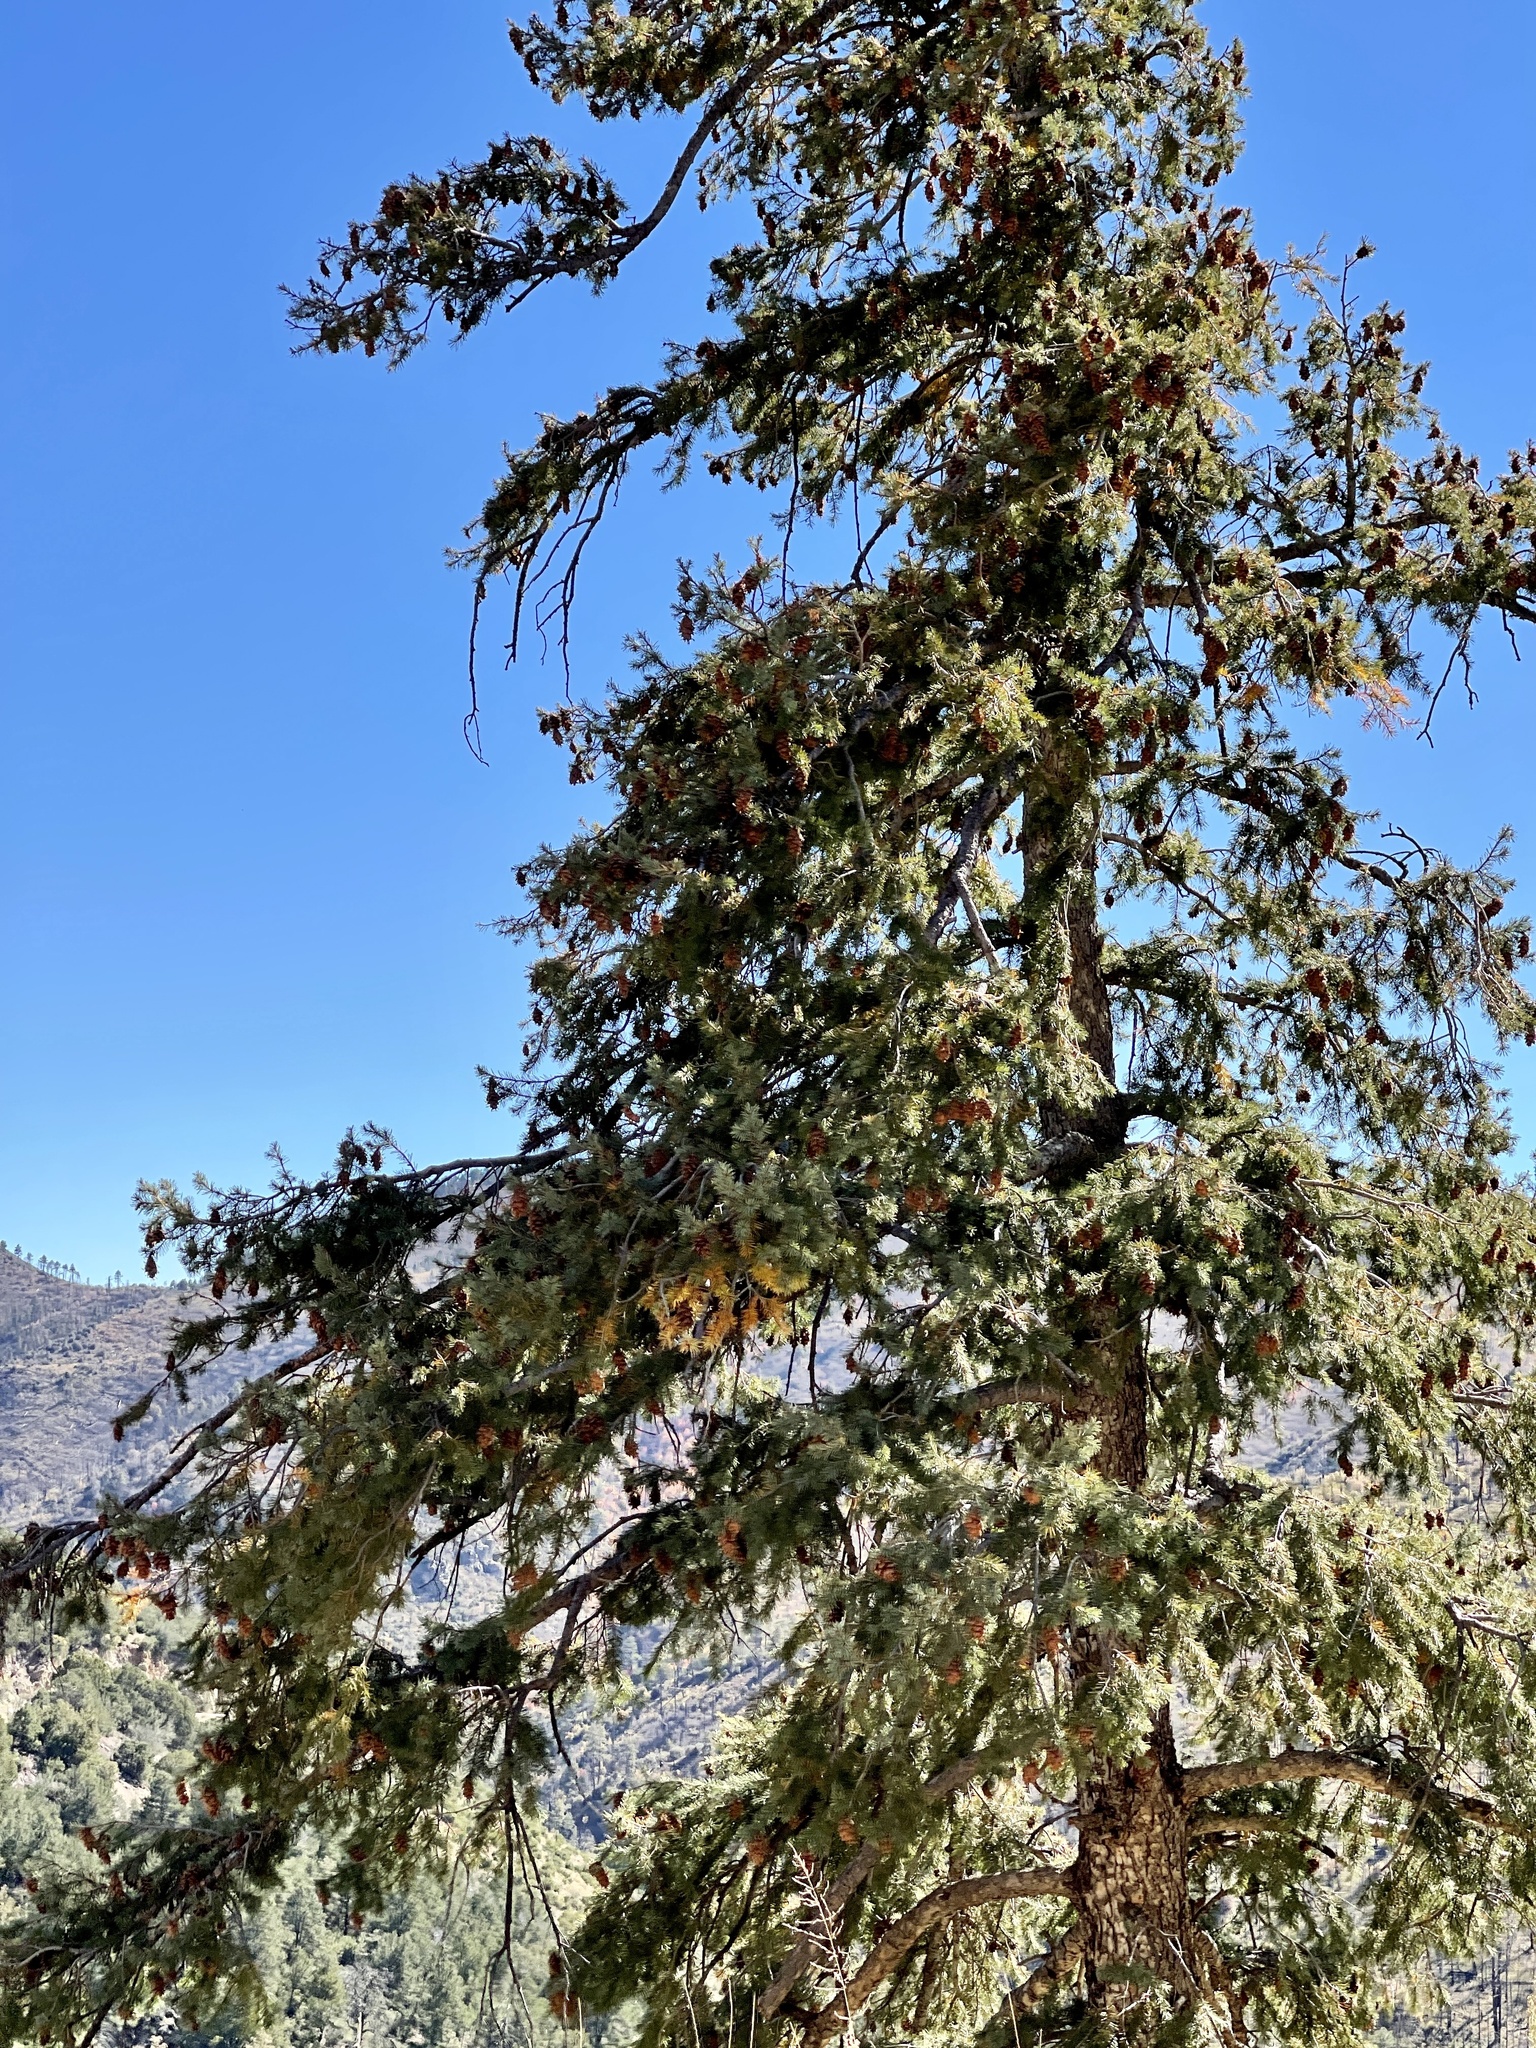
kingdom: Plantae
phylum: Tracheophyta
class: Pinopsida
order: Pinales
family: Pinaceae
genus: Pseudotsuga
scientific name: Pseudotsuga menziesii
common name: Douglas fir
